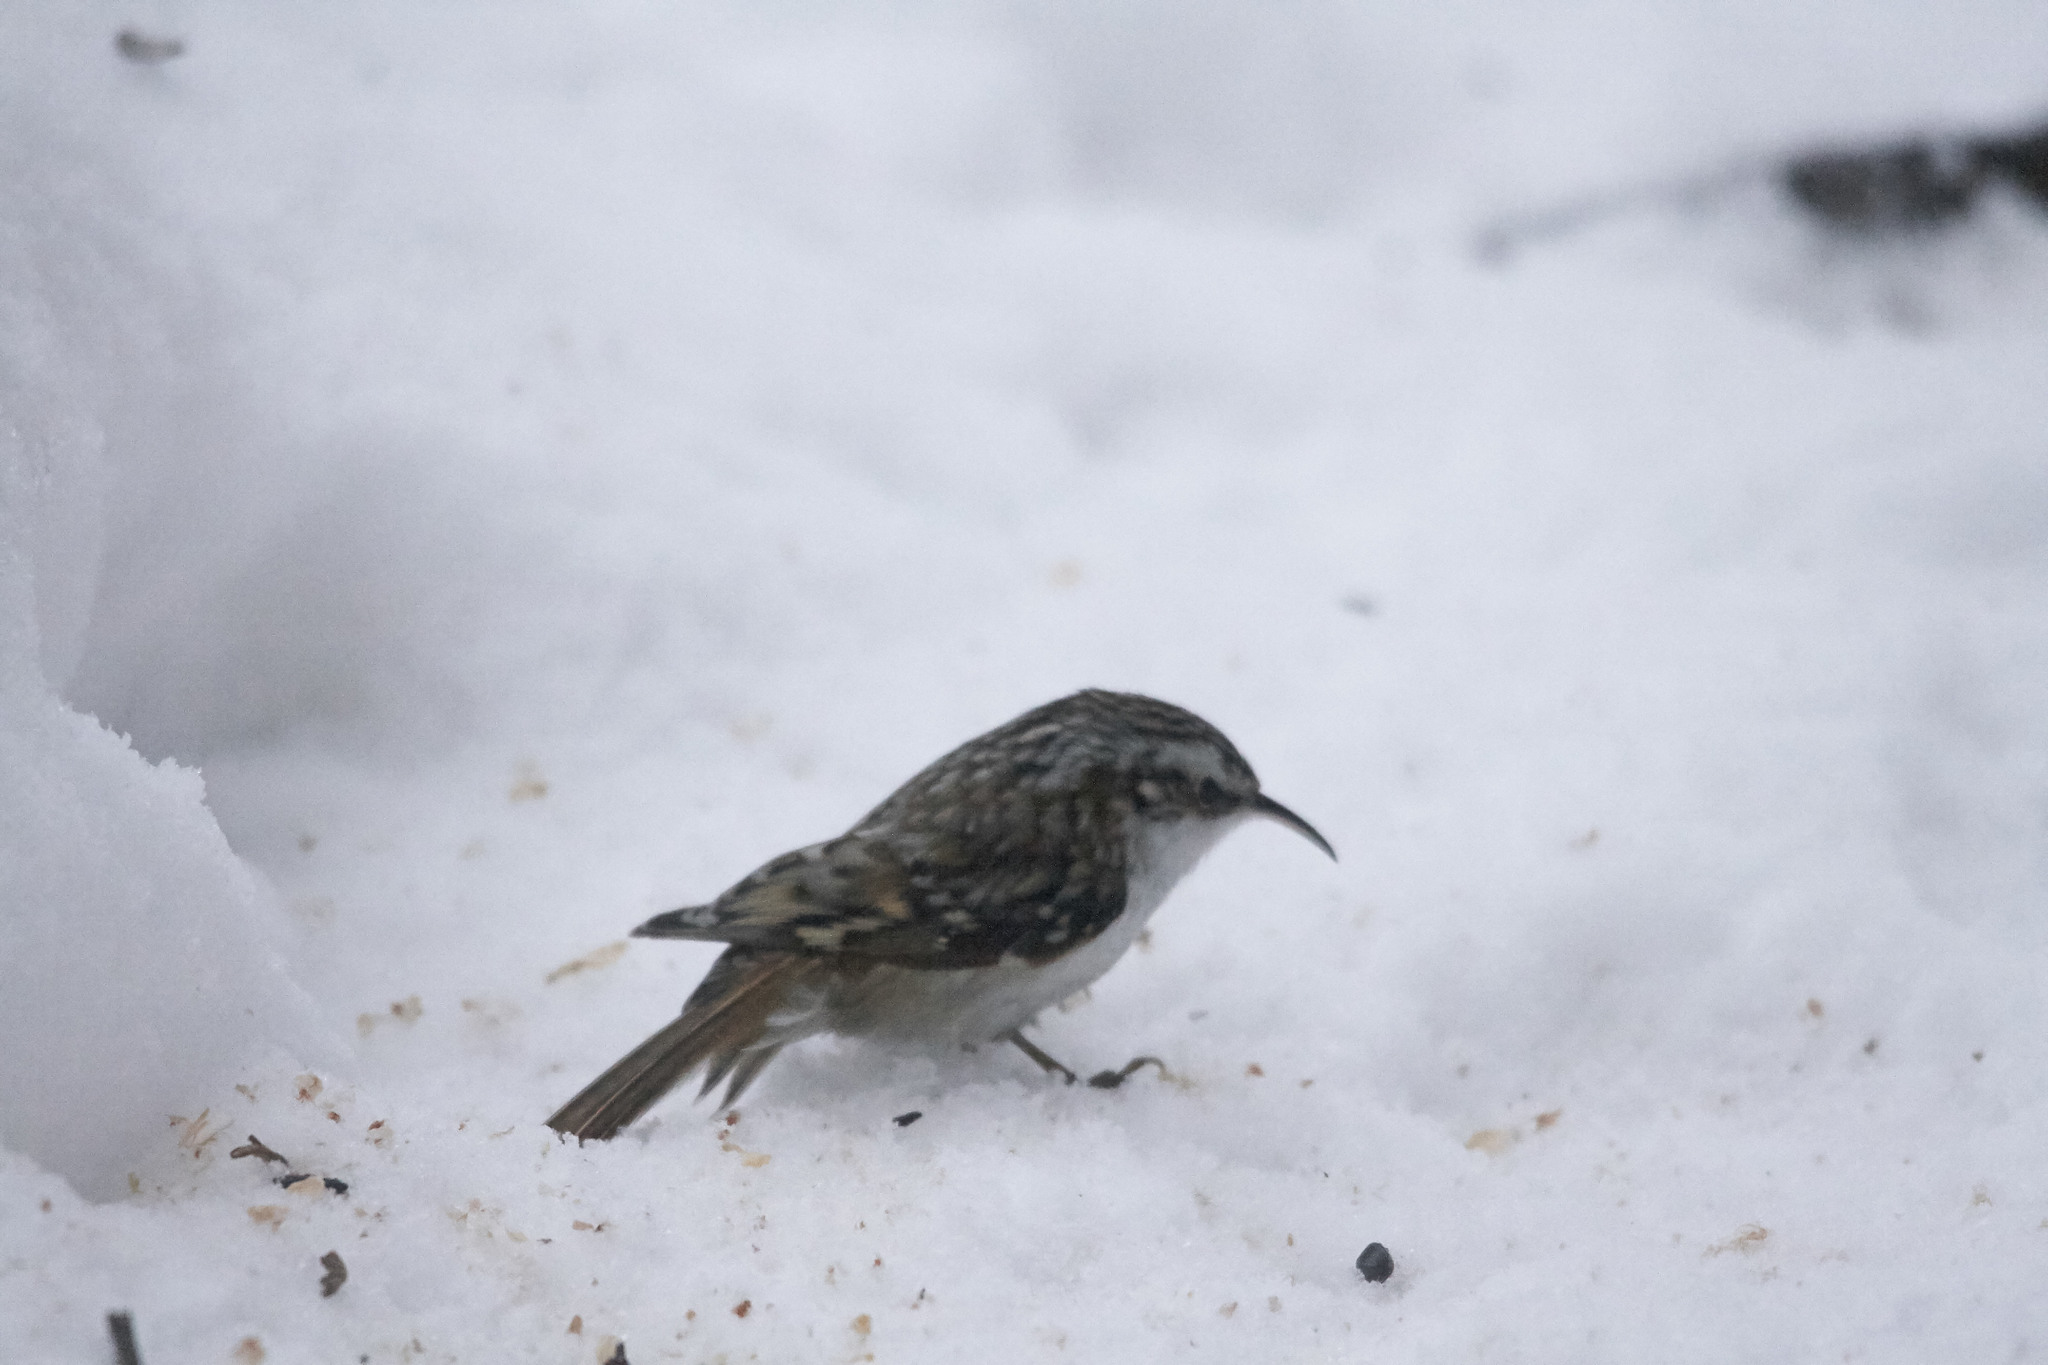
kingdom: Animalia
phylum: Chordata
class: Aves
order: Passeriformes
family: Certhiidae
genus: Certhia
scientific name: Certhia familiaris
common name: Eurasian treecreeper
